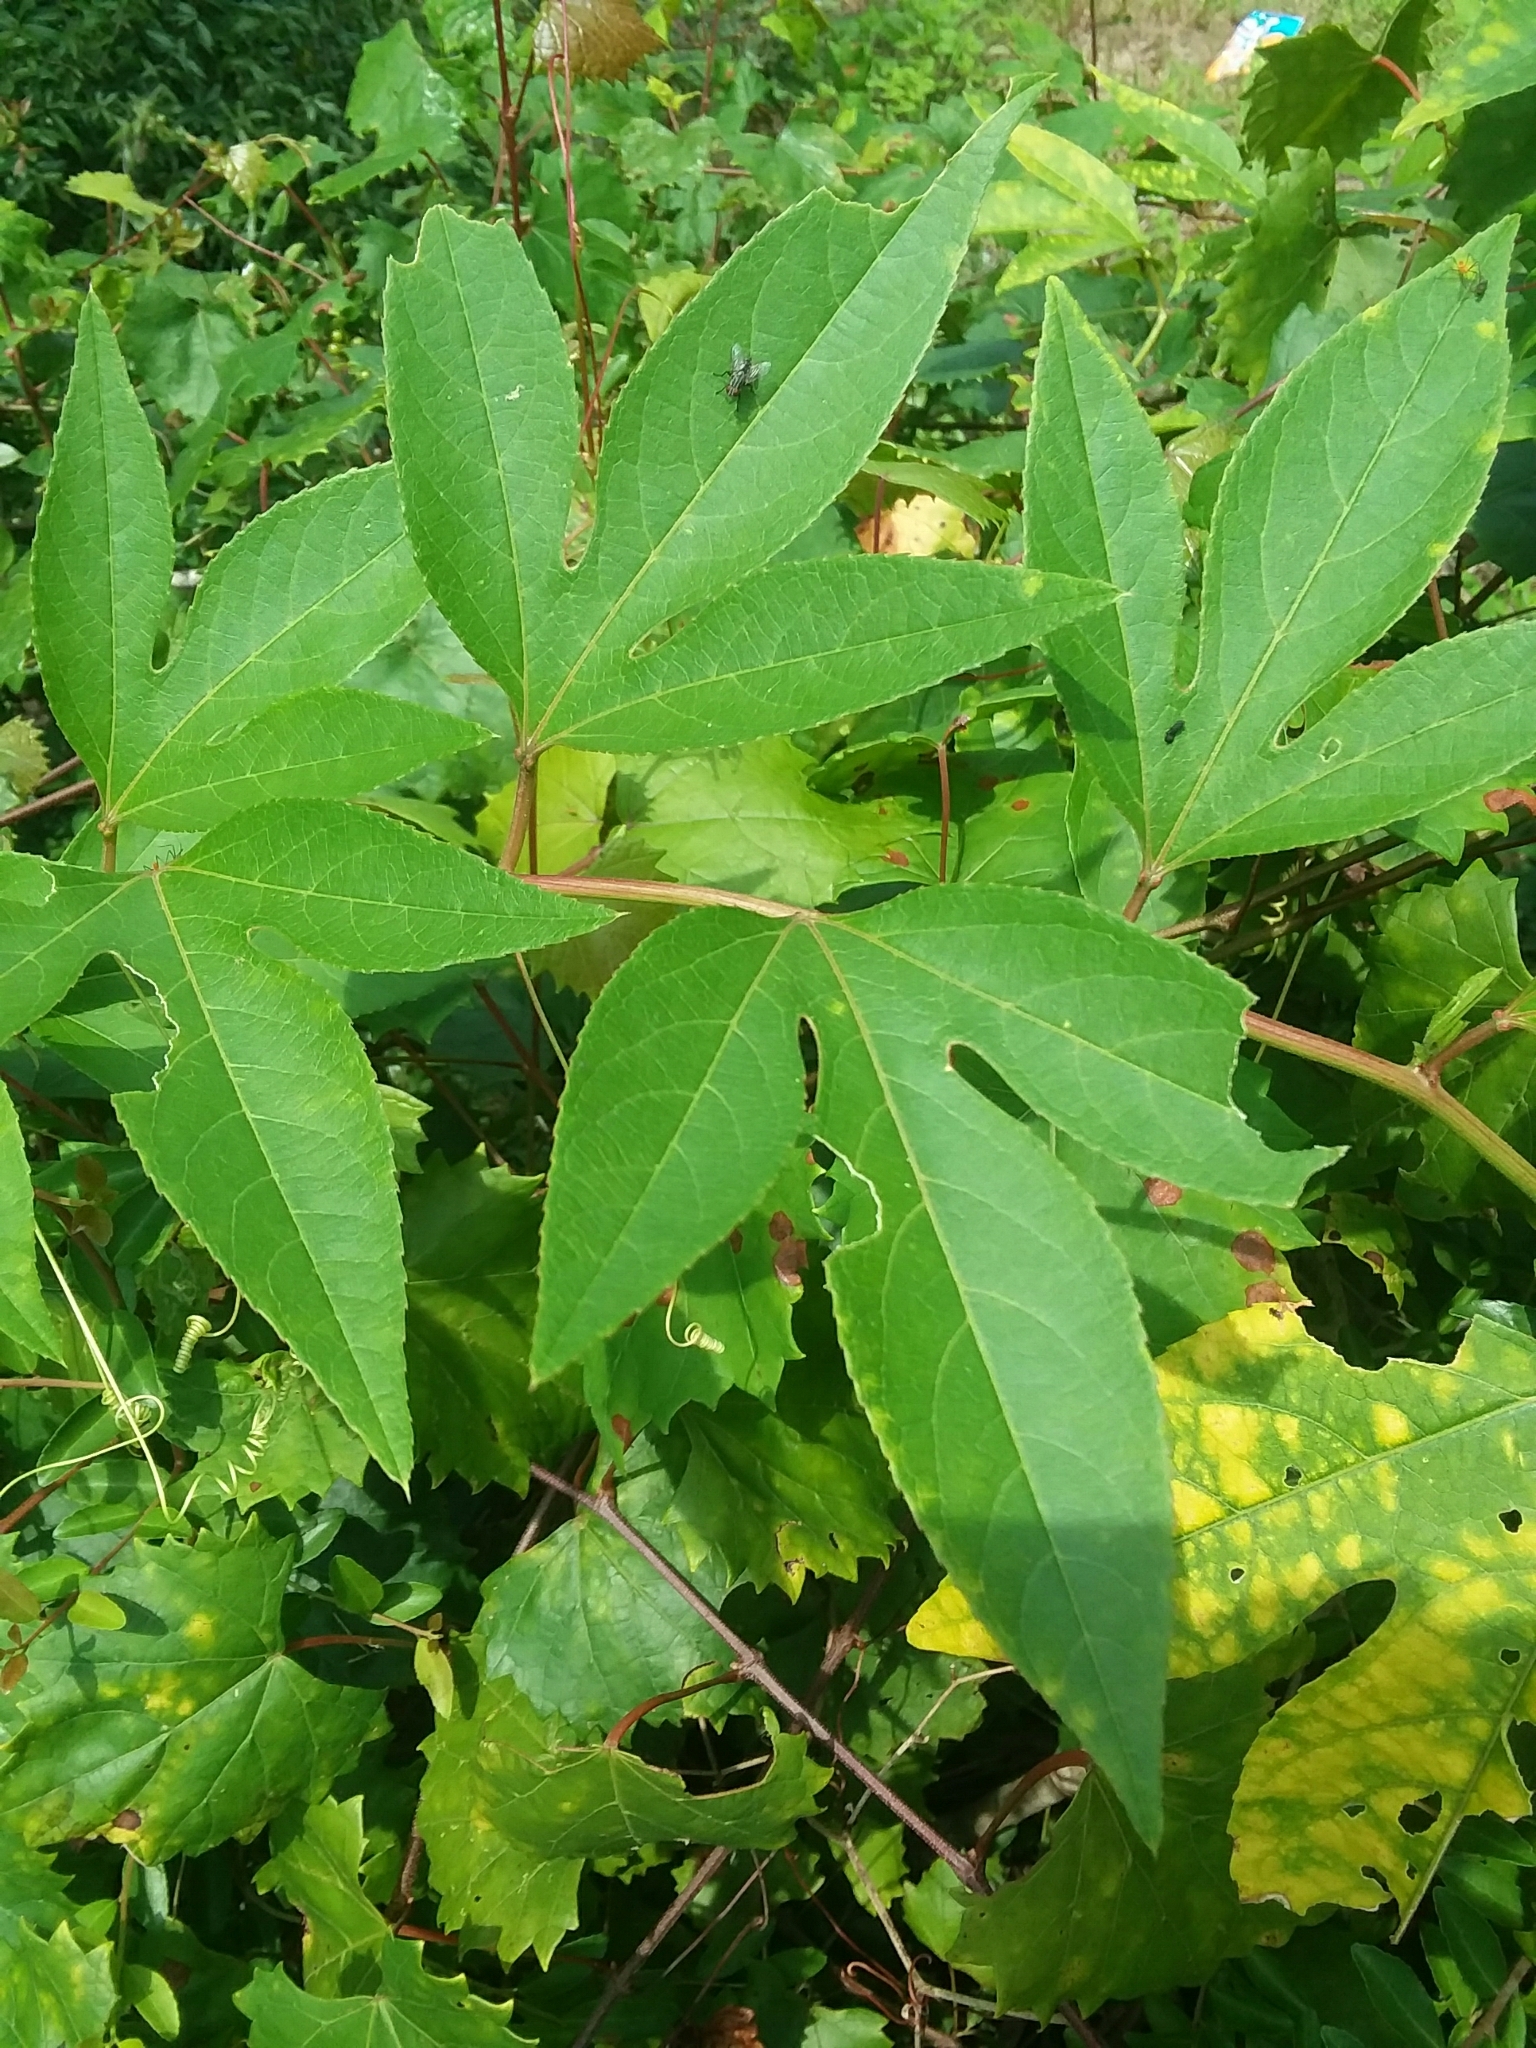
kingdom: Plantae
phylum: Tracheophyta
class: Magnoliopsida
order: Malpighiales
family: Passifloraceae
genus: Passiflora
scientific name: Passiflora incarnata
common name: Apricot-vine
